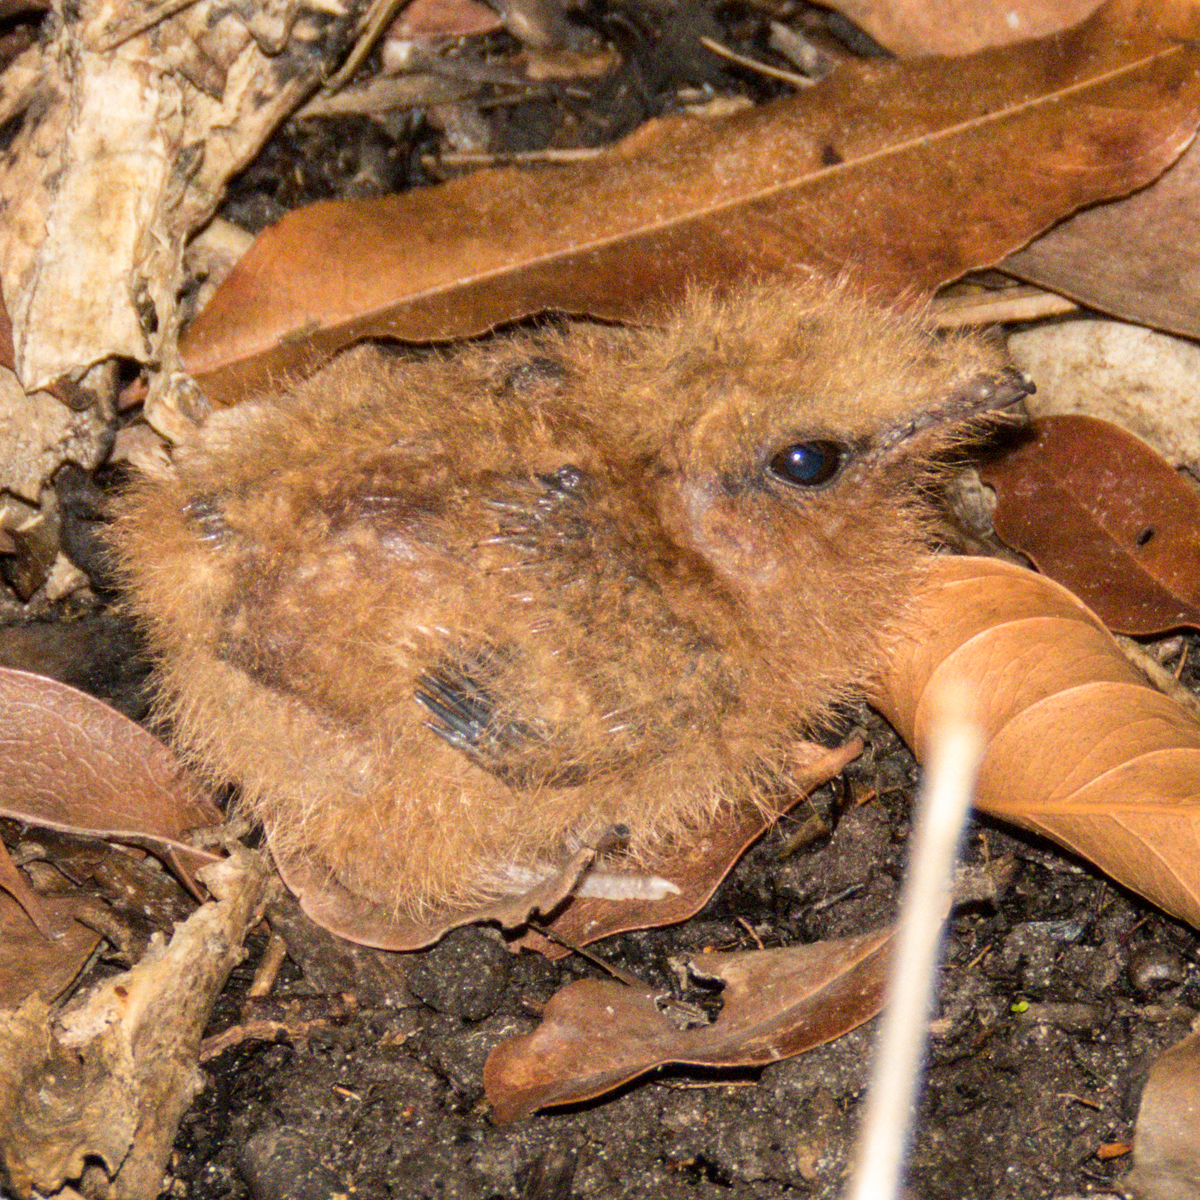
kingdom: Animalia
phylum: Chordata
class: Aves
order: Caprimulgiformes
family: Caprimulgidae
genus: Caprimulgus
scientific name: Caprimulgus macrurus
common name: Large-tailed nightjar
